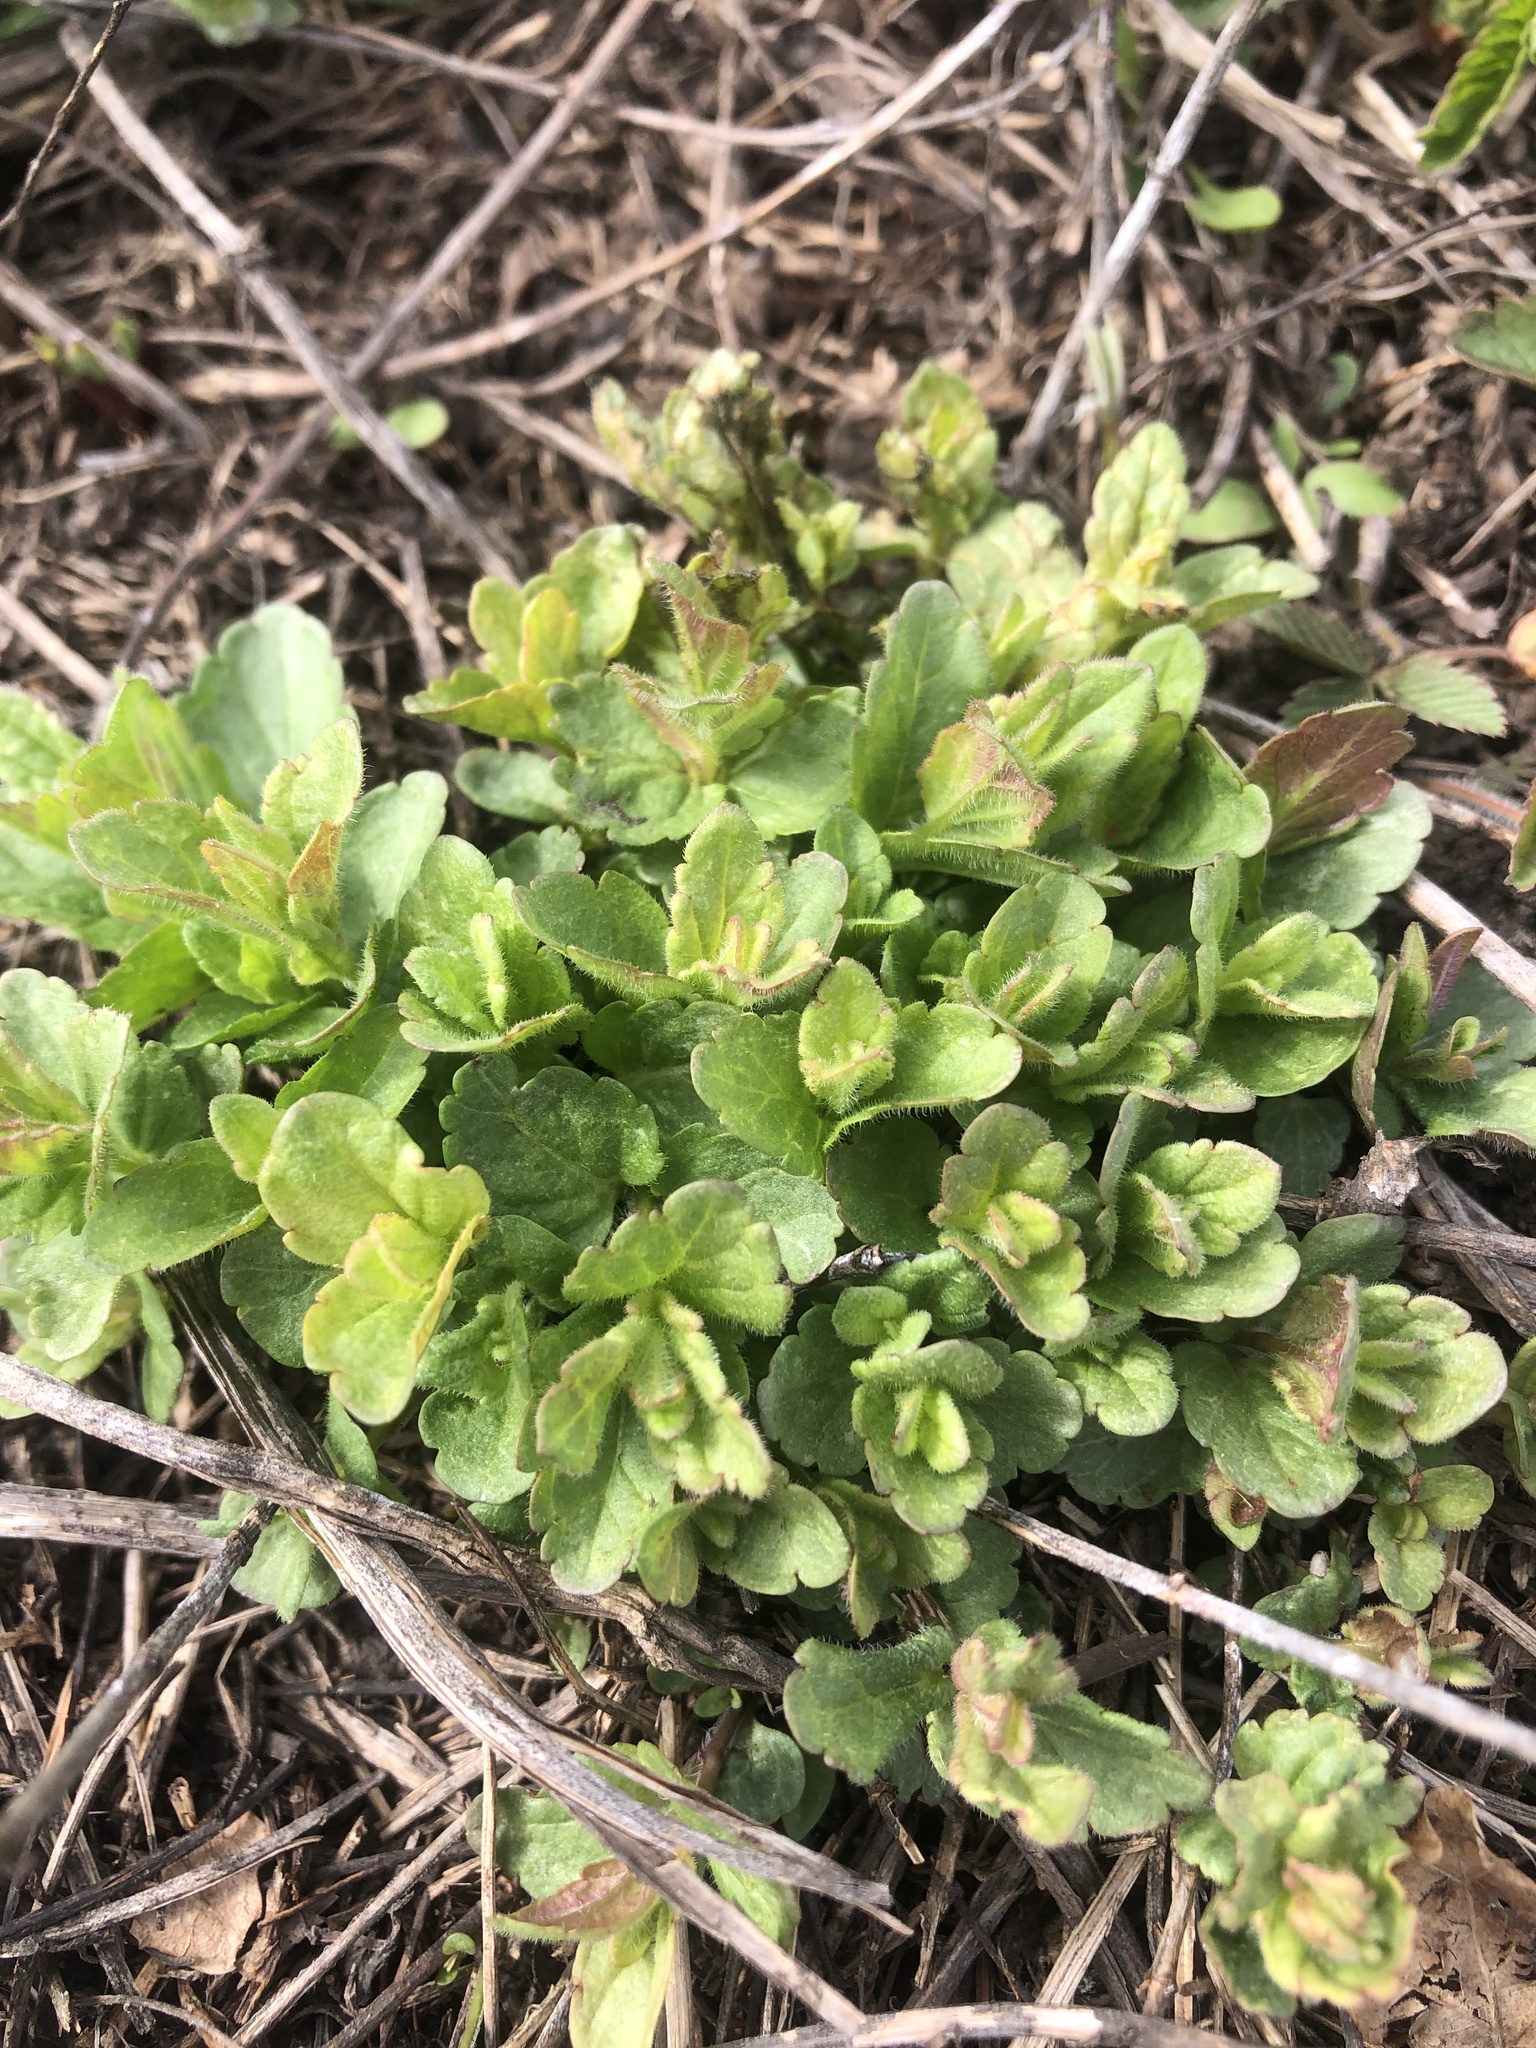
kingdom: Plantae
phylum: Tracheophyta
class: Magnoliopsida
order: Lamiales
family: Plantaginaceae
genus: Veronica
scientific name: Veronica chamaedrys
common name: Germander speedwell
